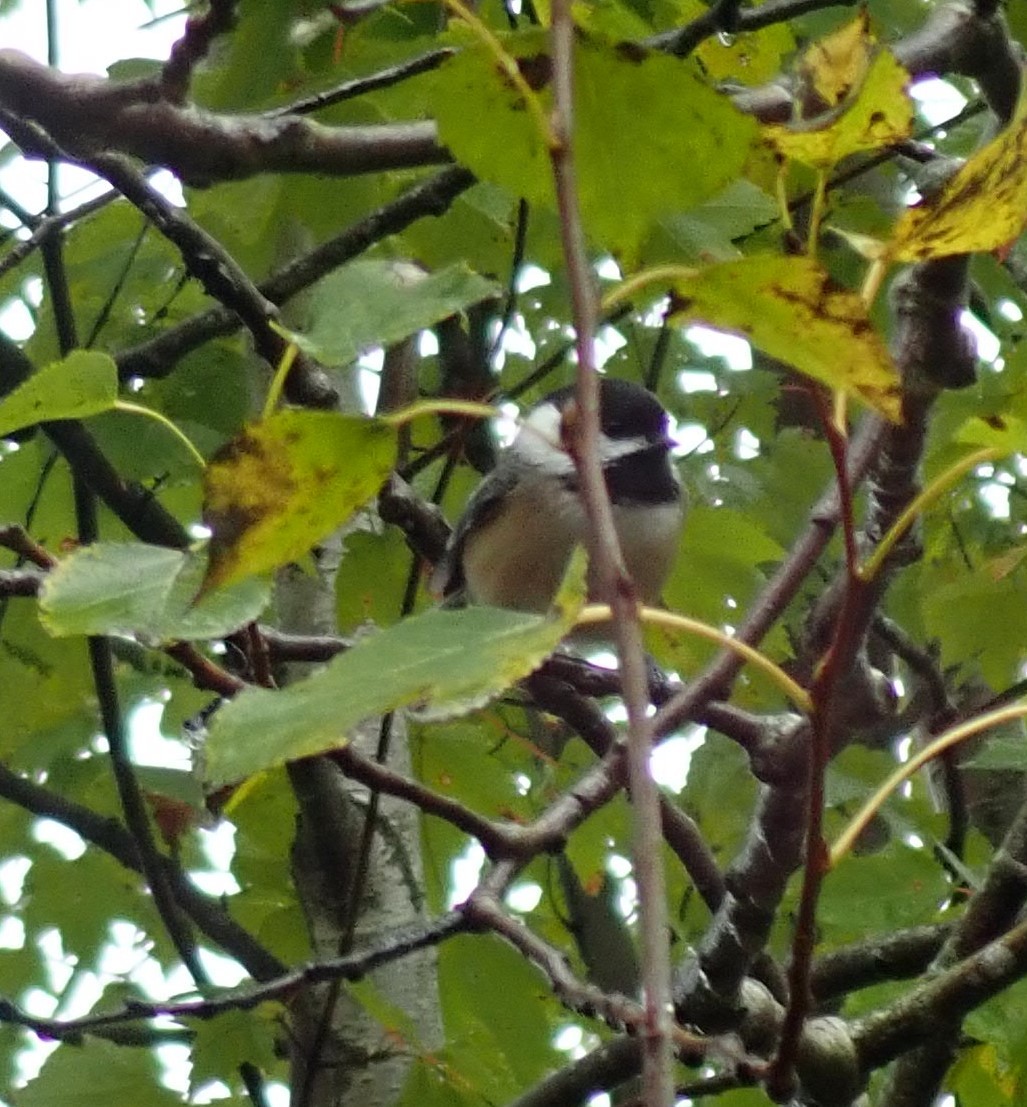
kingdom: Animalia
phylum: Chordata
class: Aves
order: Passeriformes
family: Paridae
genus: Poecile
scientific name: Poecile atricapillus
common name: Black-capped chickadee
